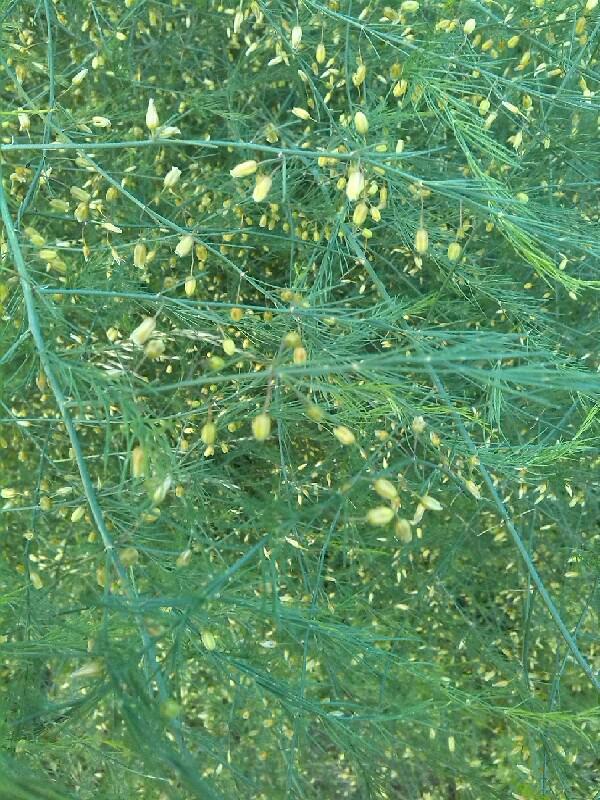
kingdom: Plantae
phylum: Tracheophyta
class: Liliopsida
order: Asparagales
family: Asparagaceae
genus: Asparagus
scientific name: Asparagus officinalis
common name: Garden asparagus
